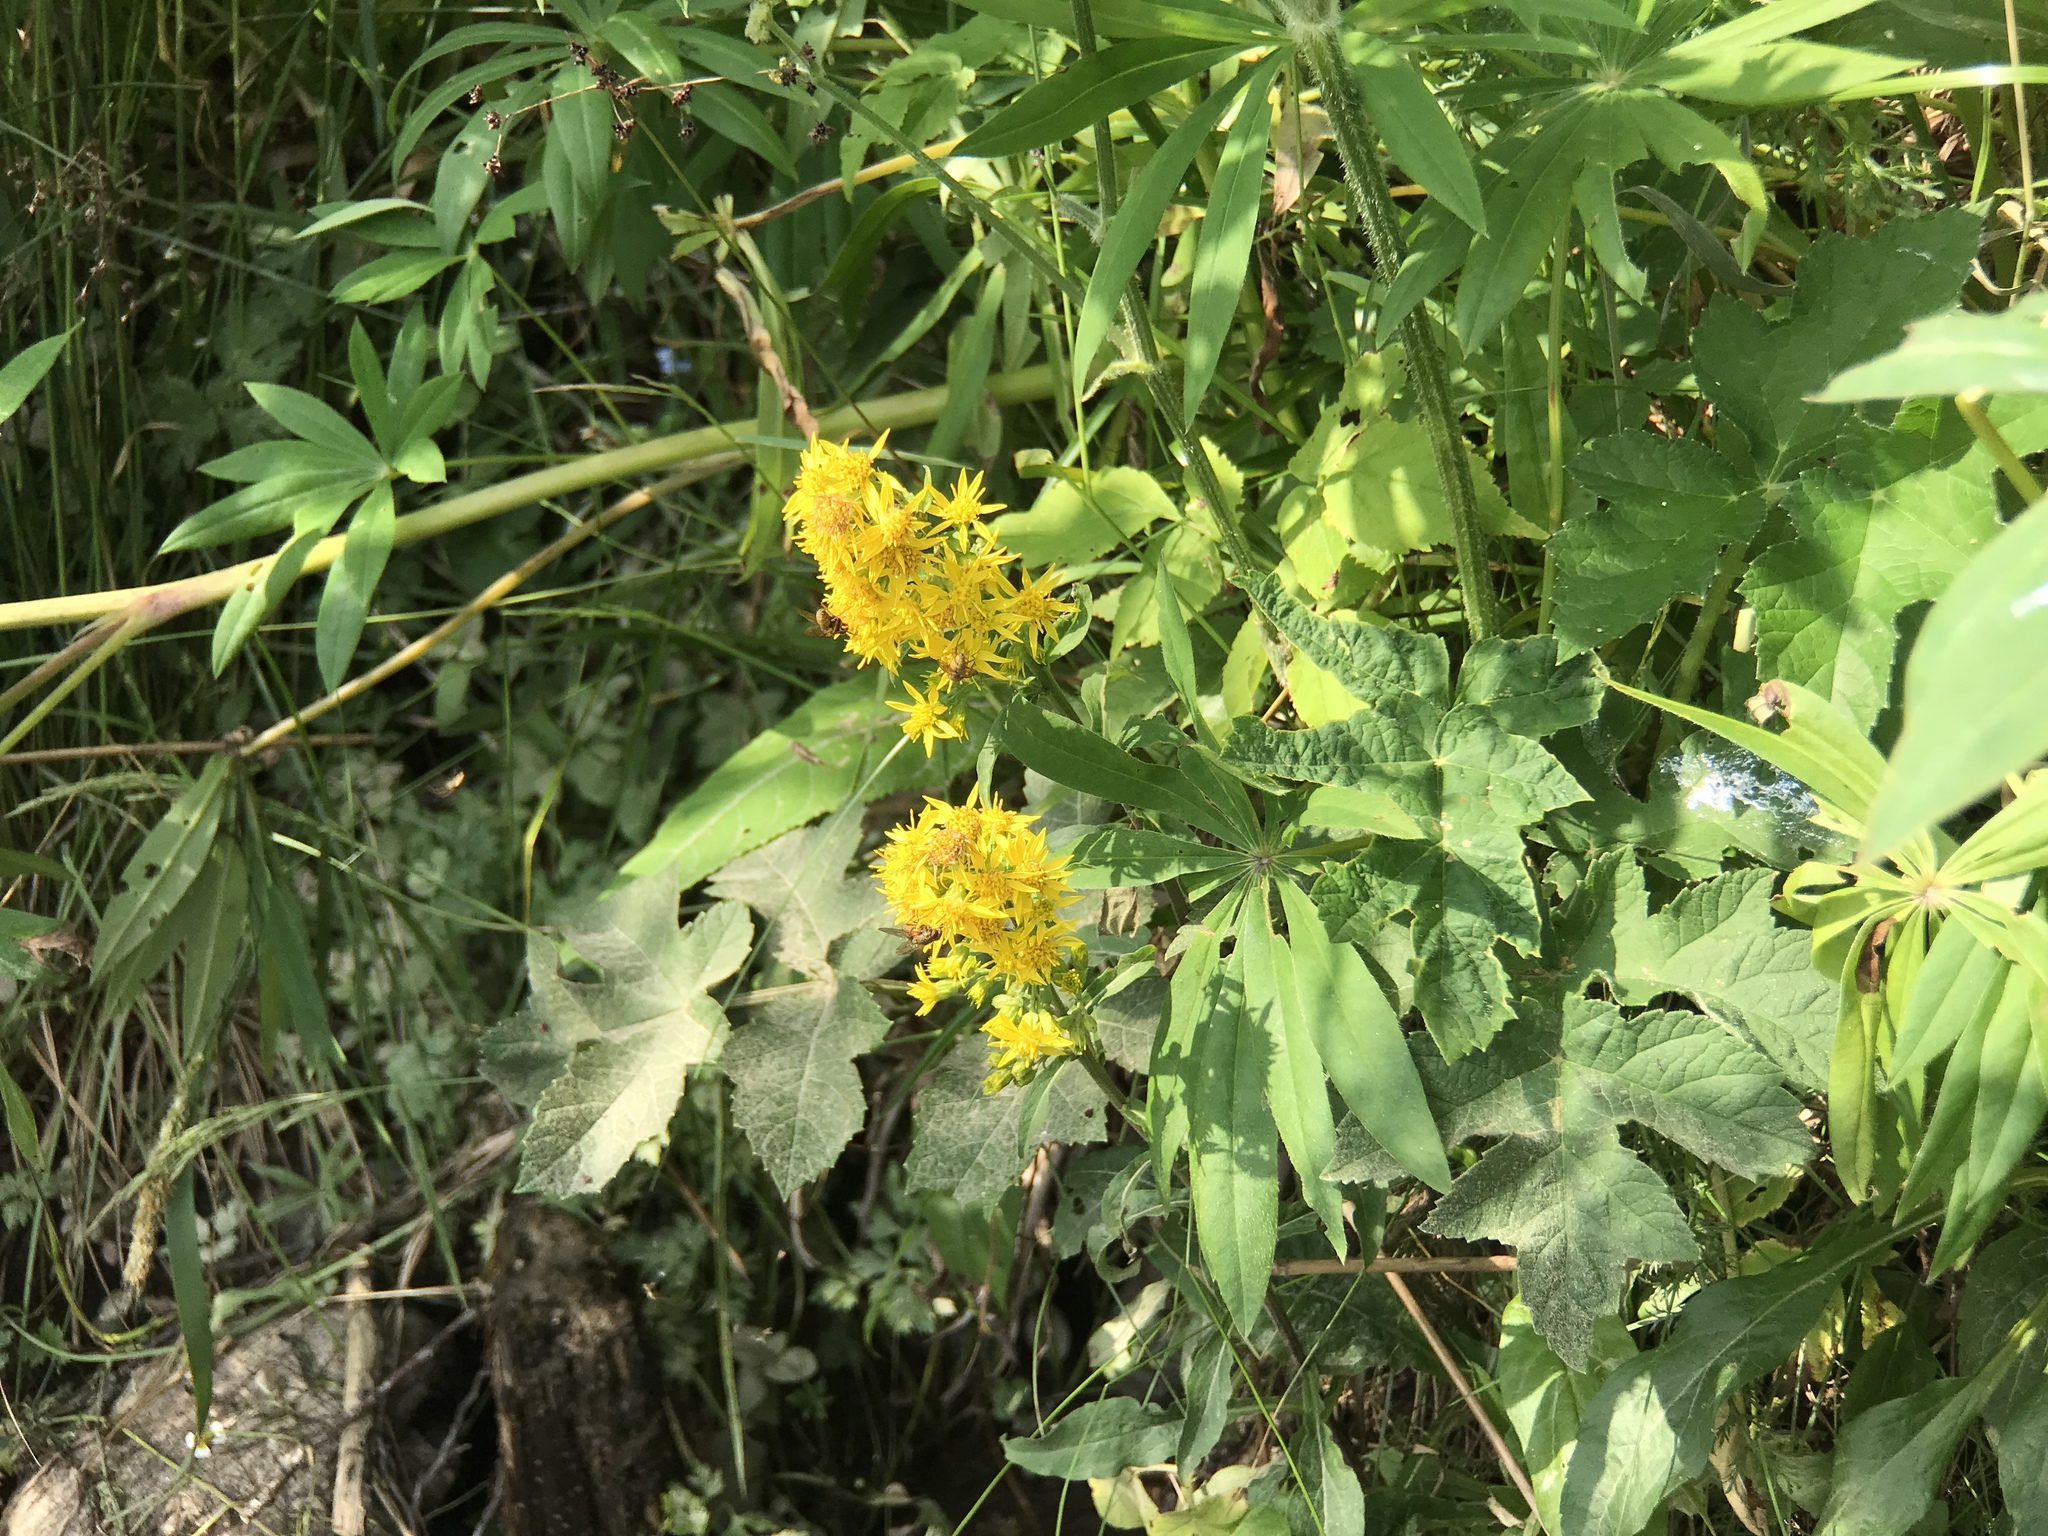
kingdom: Plantae
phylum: Tracheophyta
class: Magnoliopsida
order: Asterales
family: Asteraceae
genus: Solidago
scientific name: Solidago virgaurea
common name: Goldenrod
